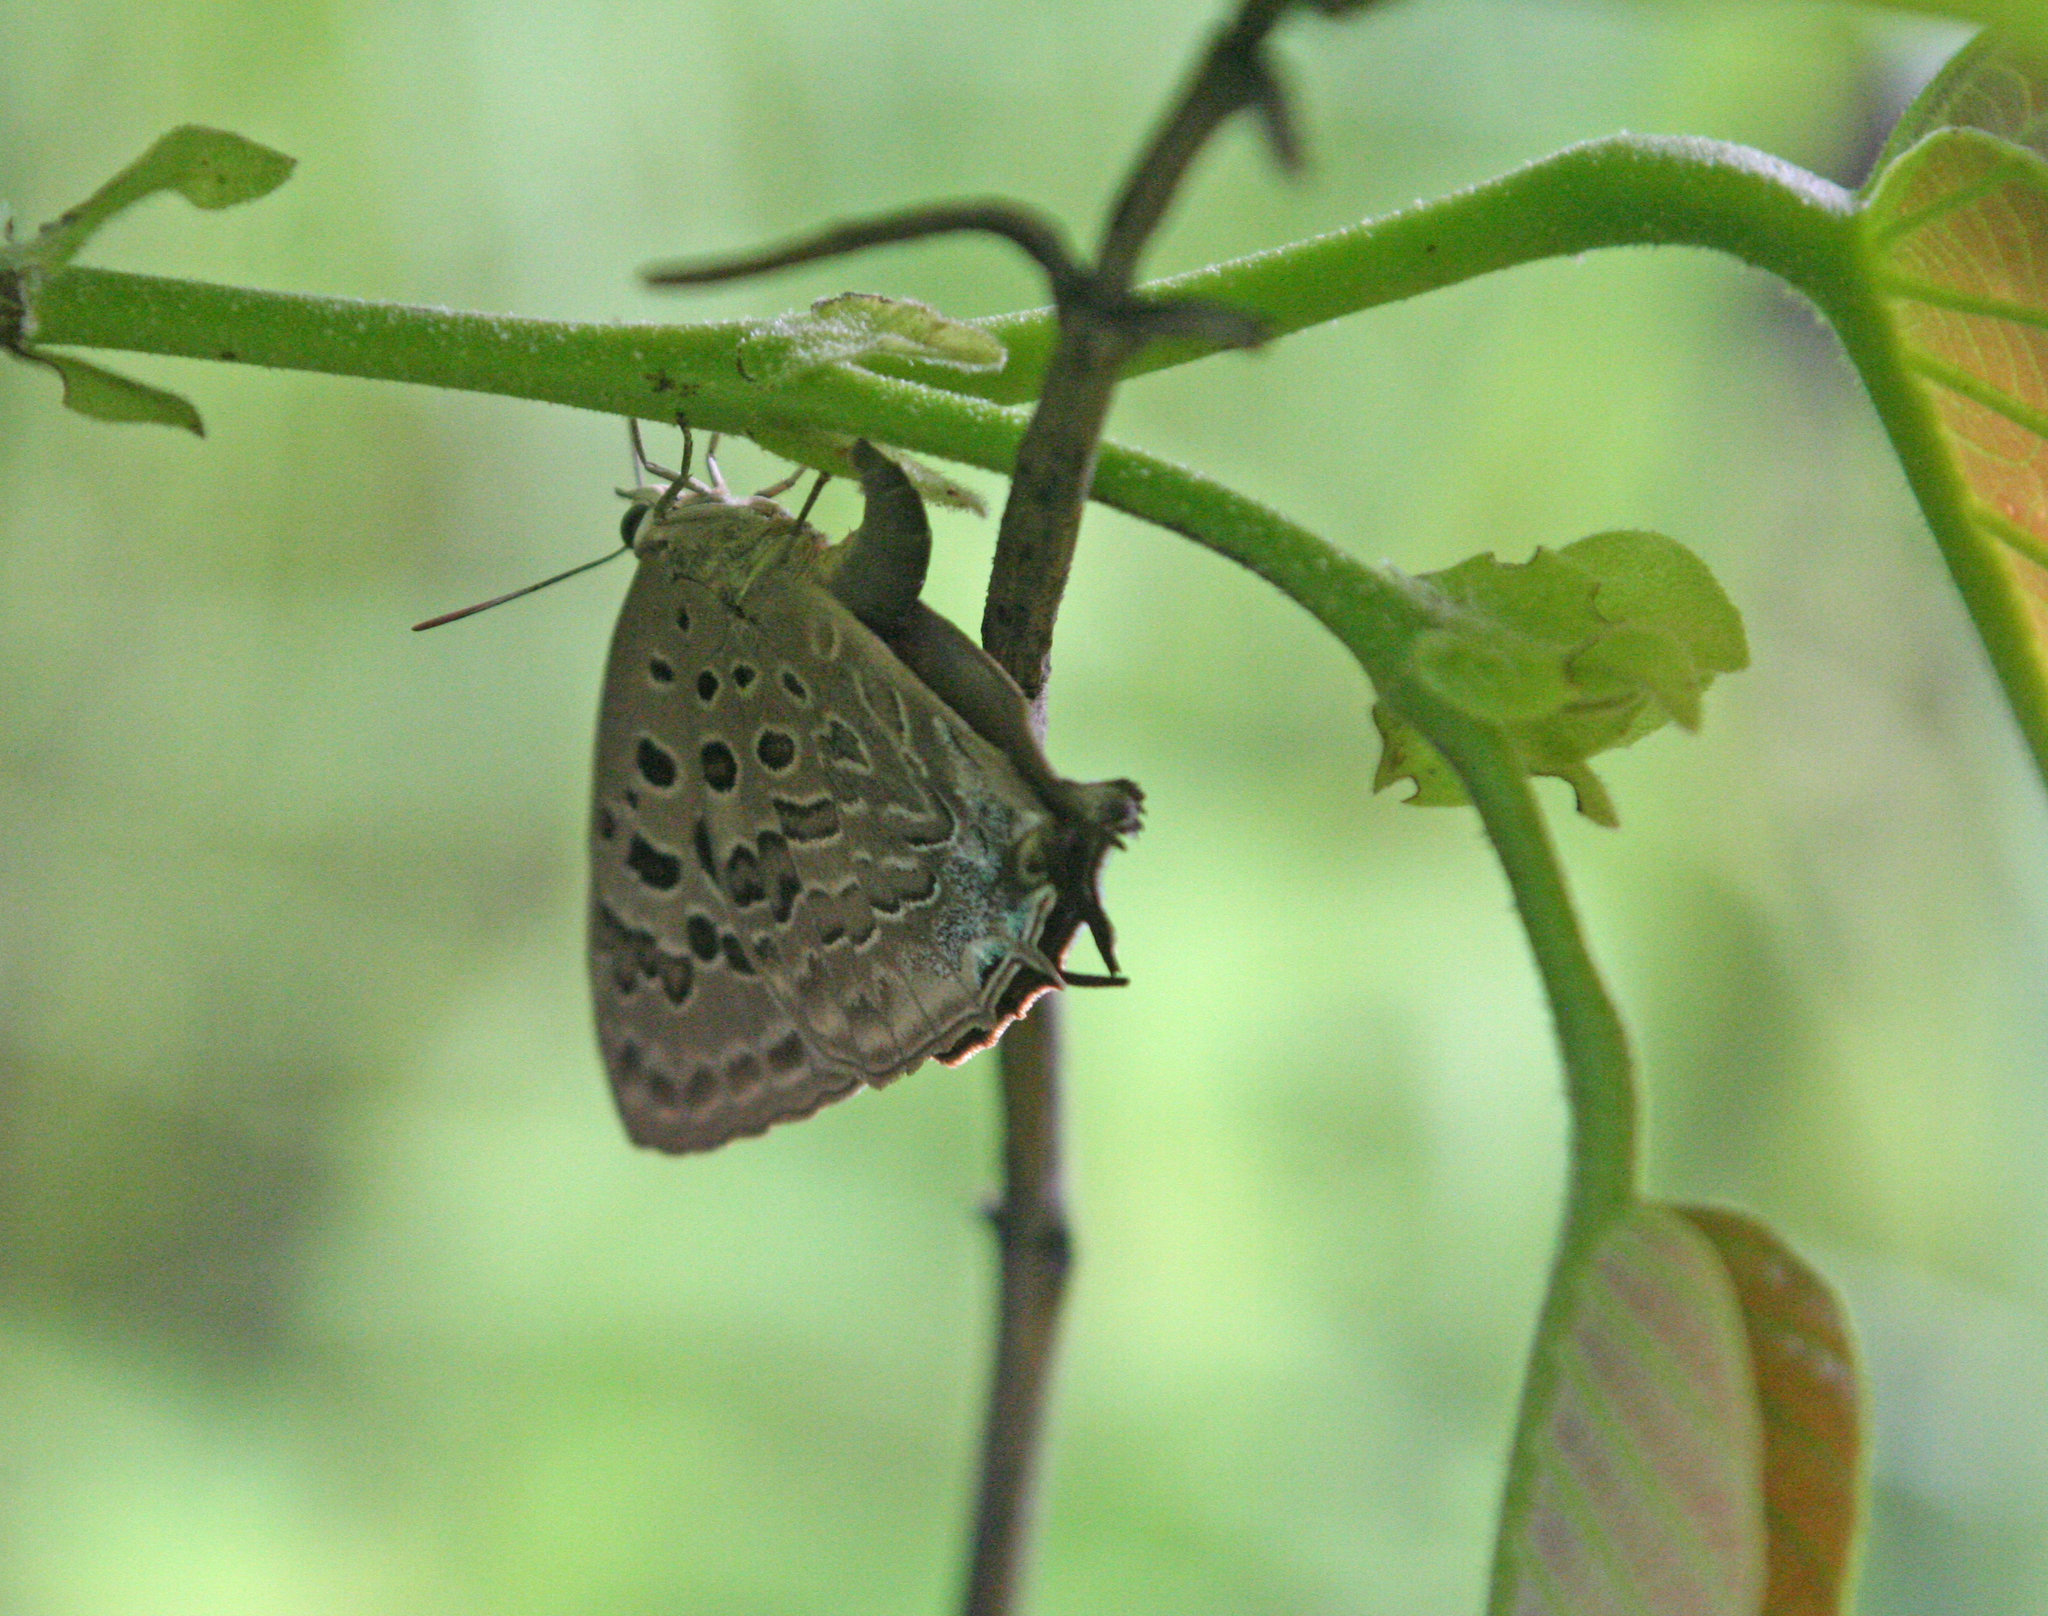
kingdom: Animalia
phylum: Arthropoda
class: Insecta
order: Lepidoptera
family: Lycaenidae
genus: Arhopala
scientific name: Arhopala nicevillei
